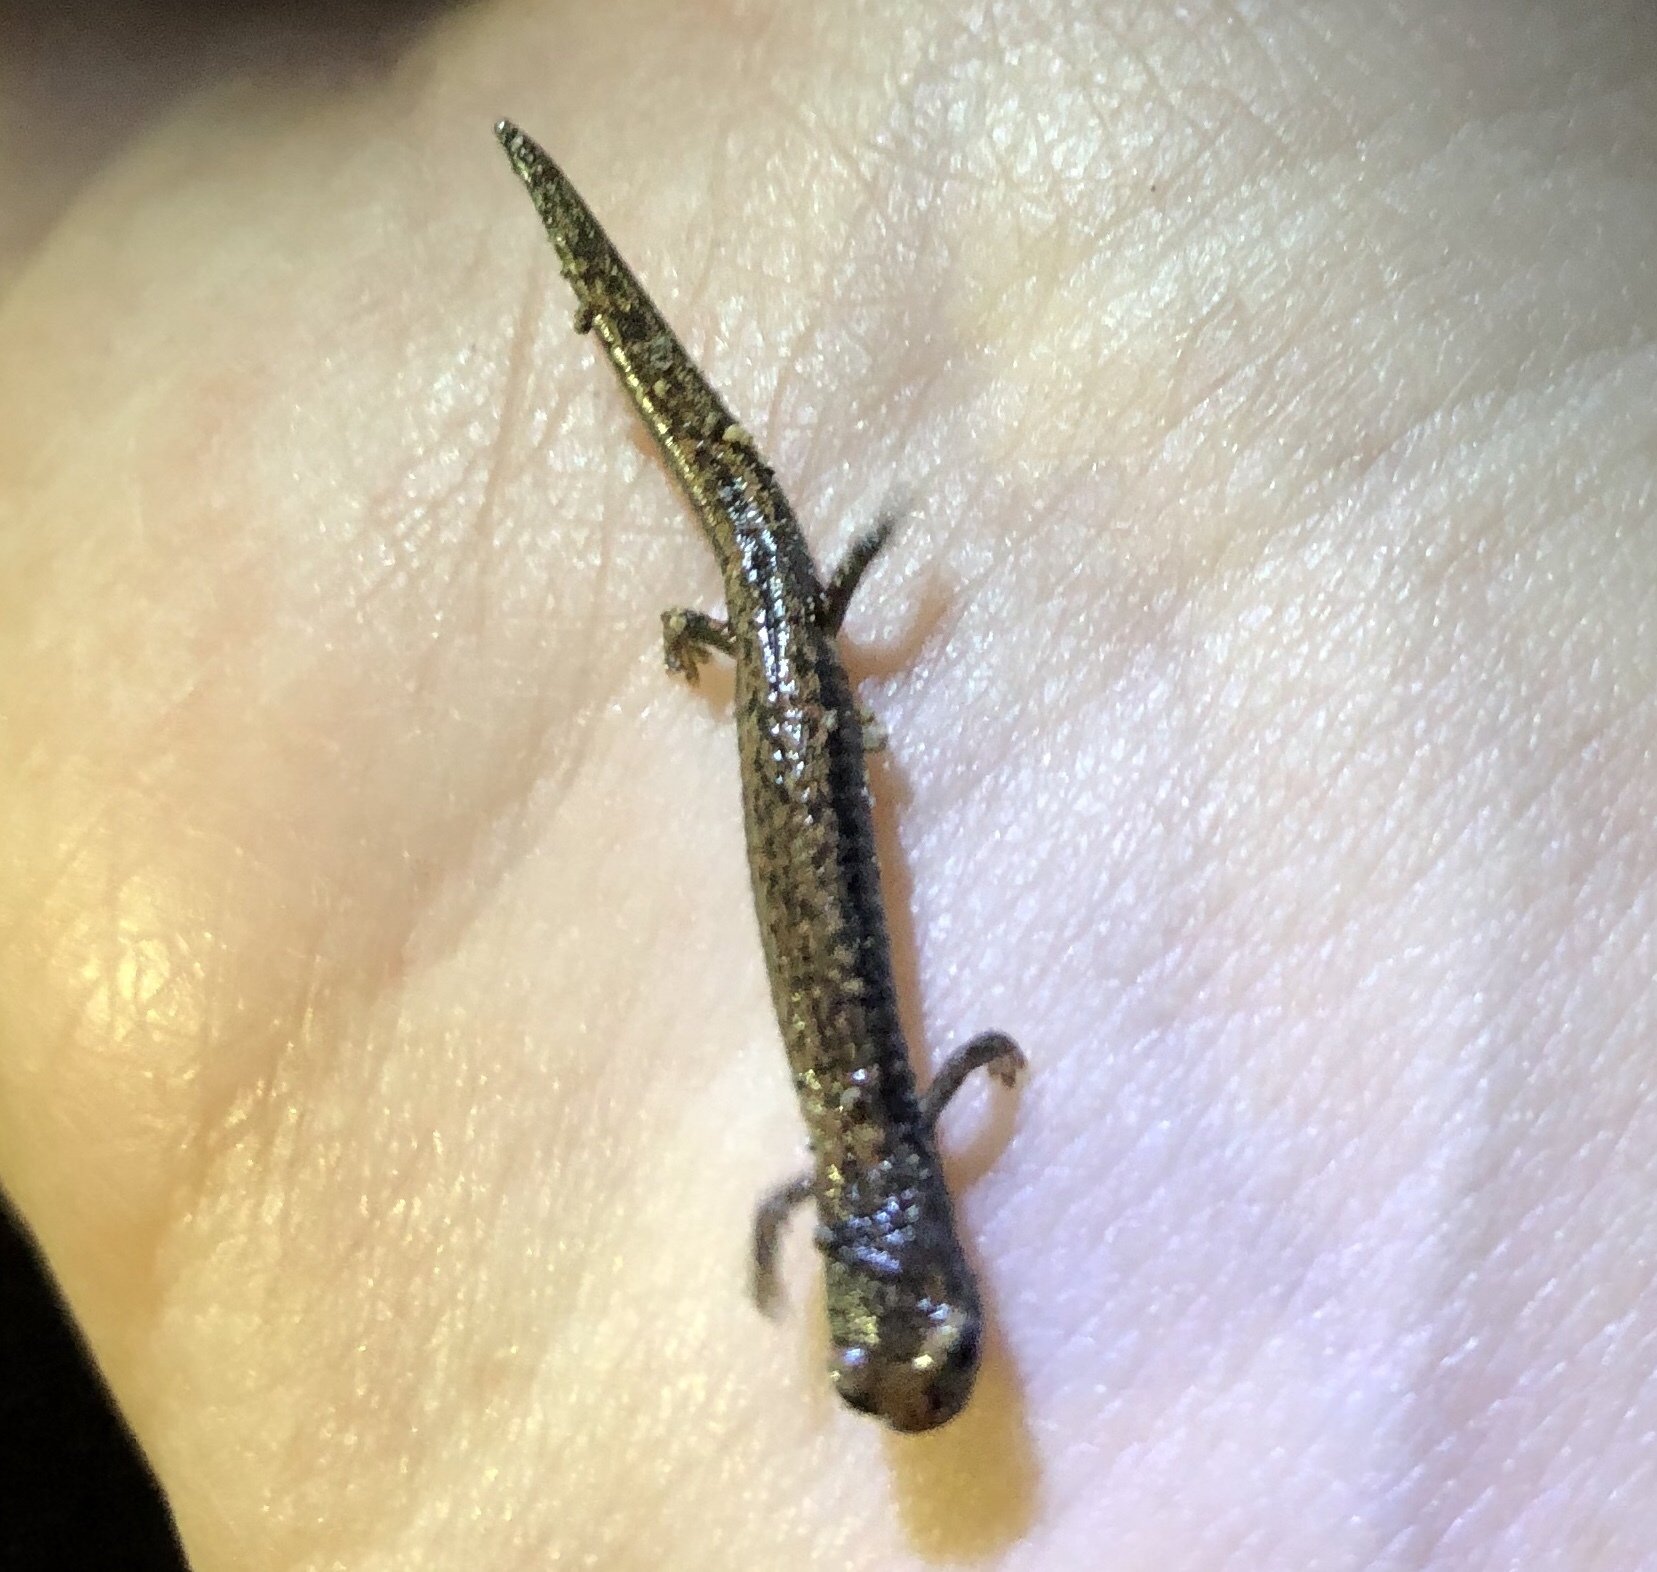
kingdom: Animalia
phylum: Chordata
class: Amphibia
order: Caudata
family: Plethodontidae
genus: Batrachoseps
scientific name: Batrachoseps major
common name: Garden slender salamander
